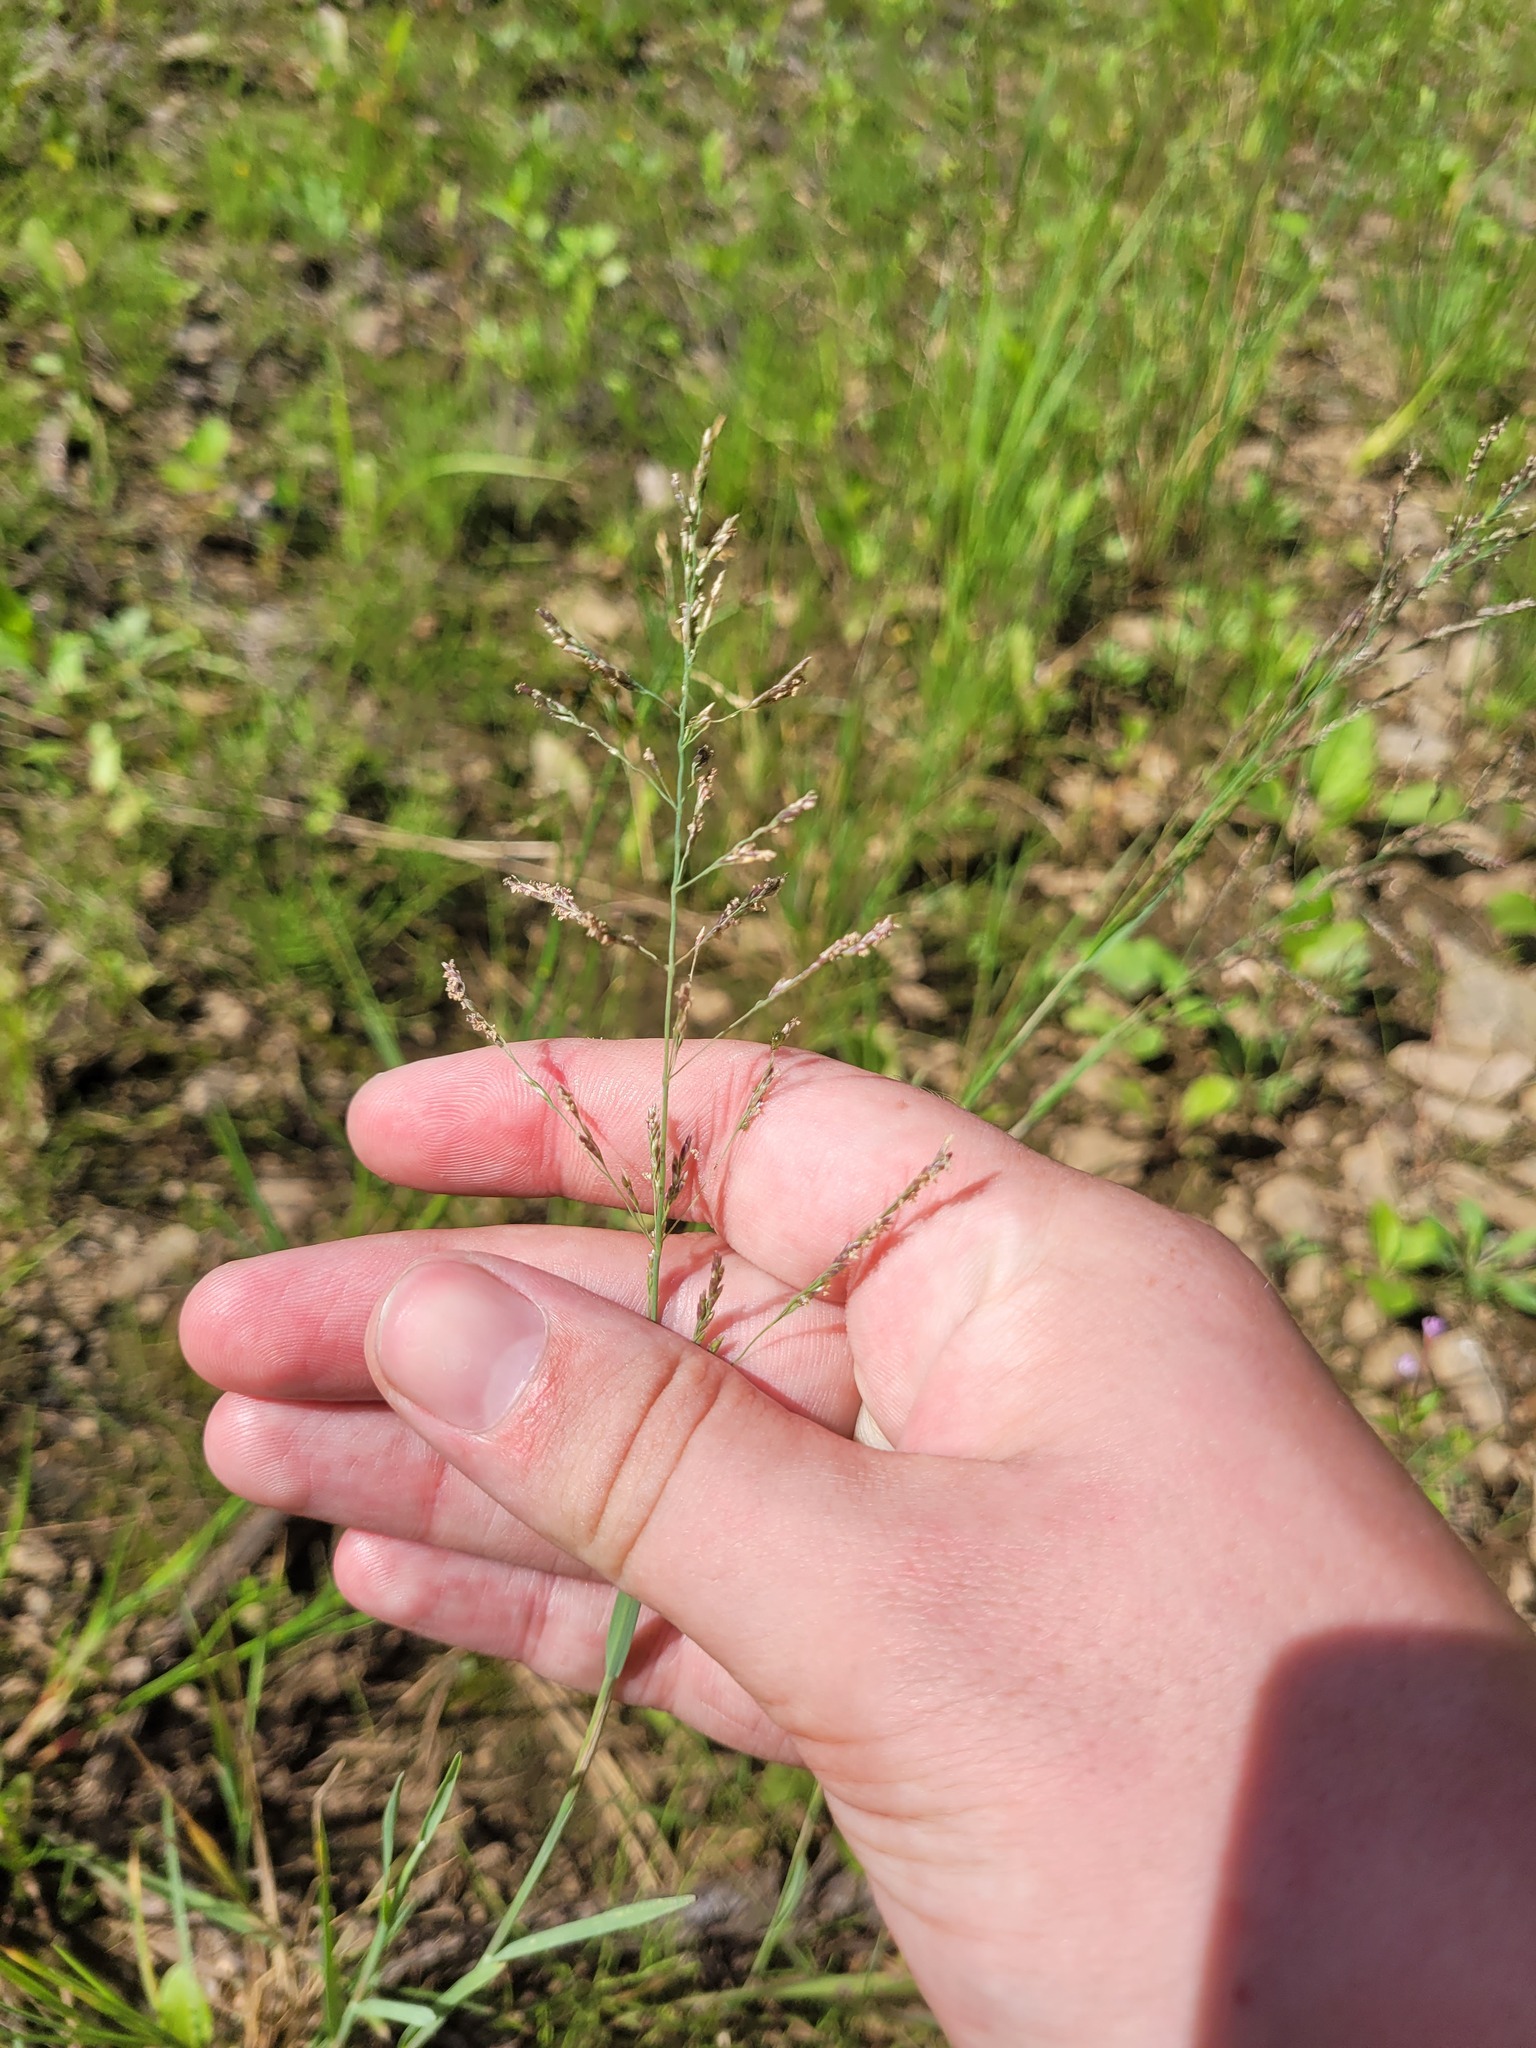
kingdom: Plantae
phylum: Tracheophyta
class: Liliopsida
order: Poales
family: Poaceae
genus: Puccinellia
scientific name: Puccinellia distans
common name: Weeping alkaligrass
